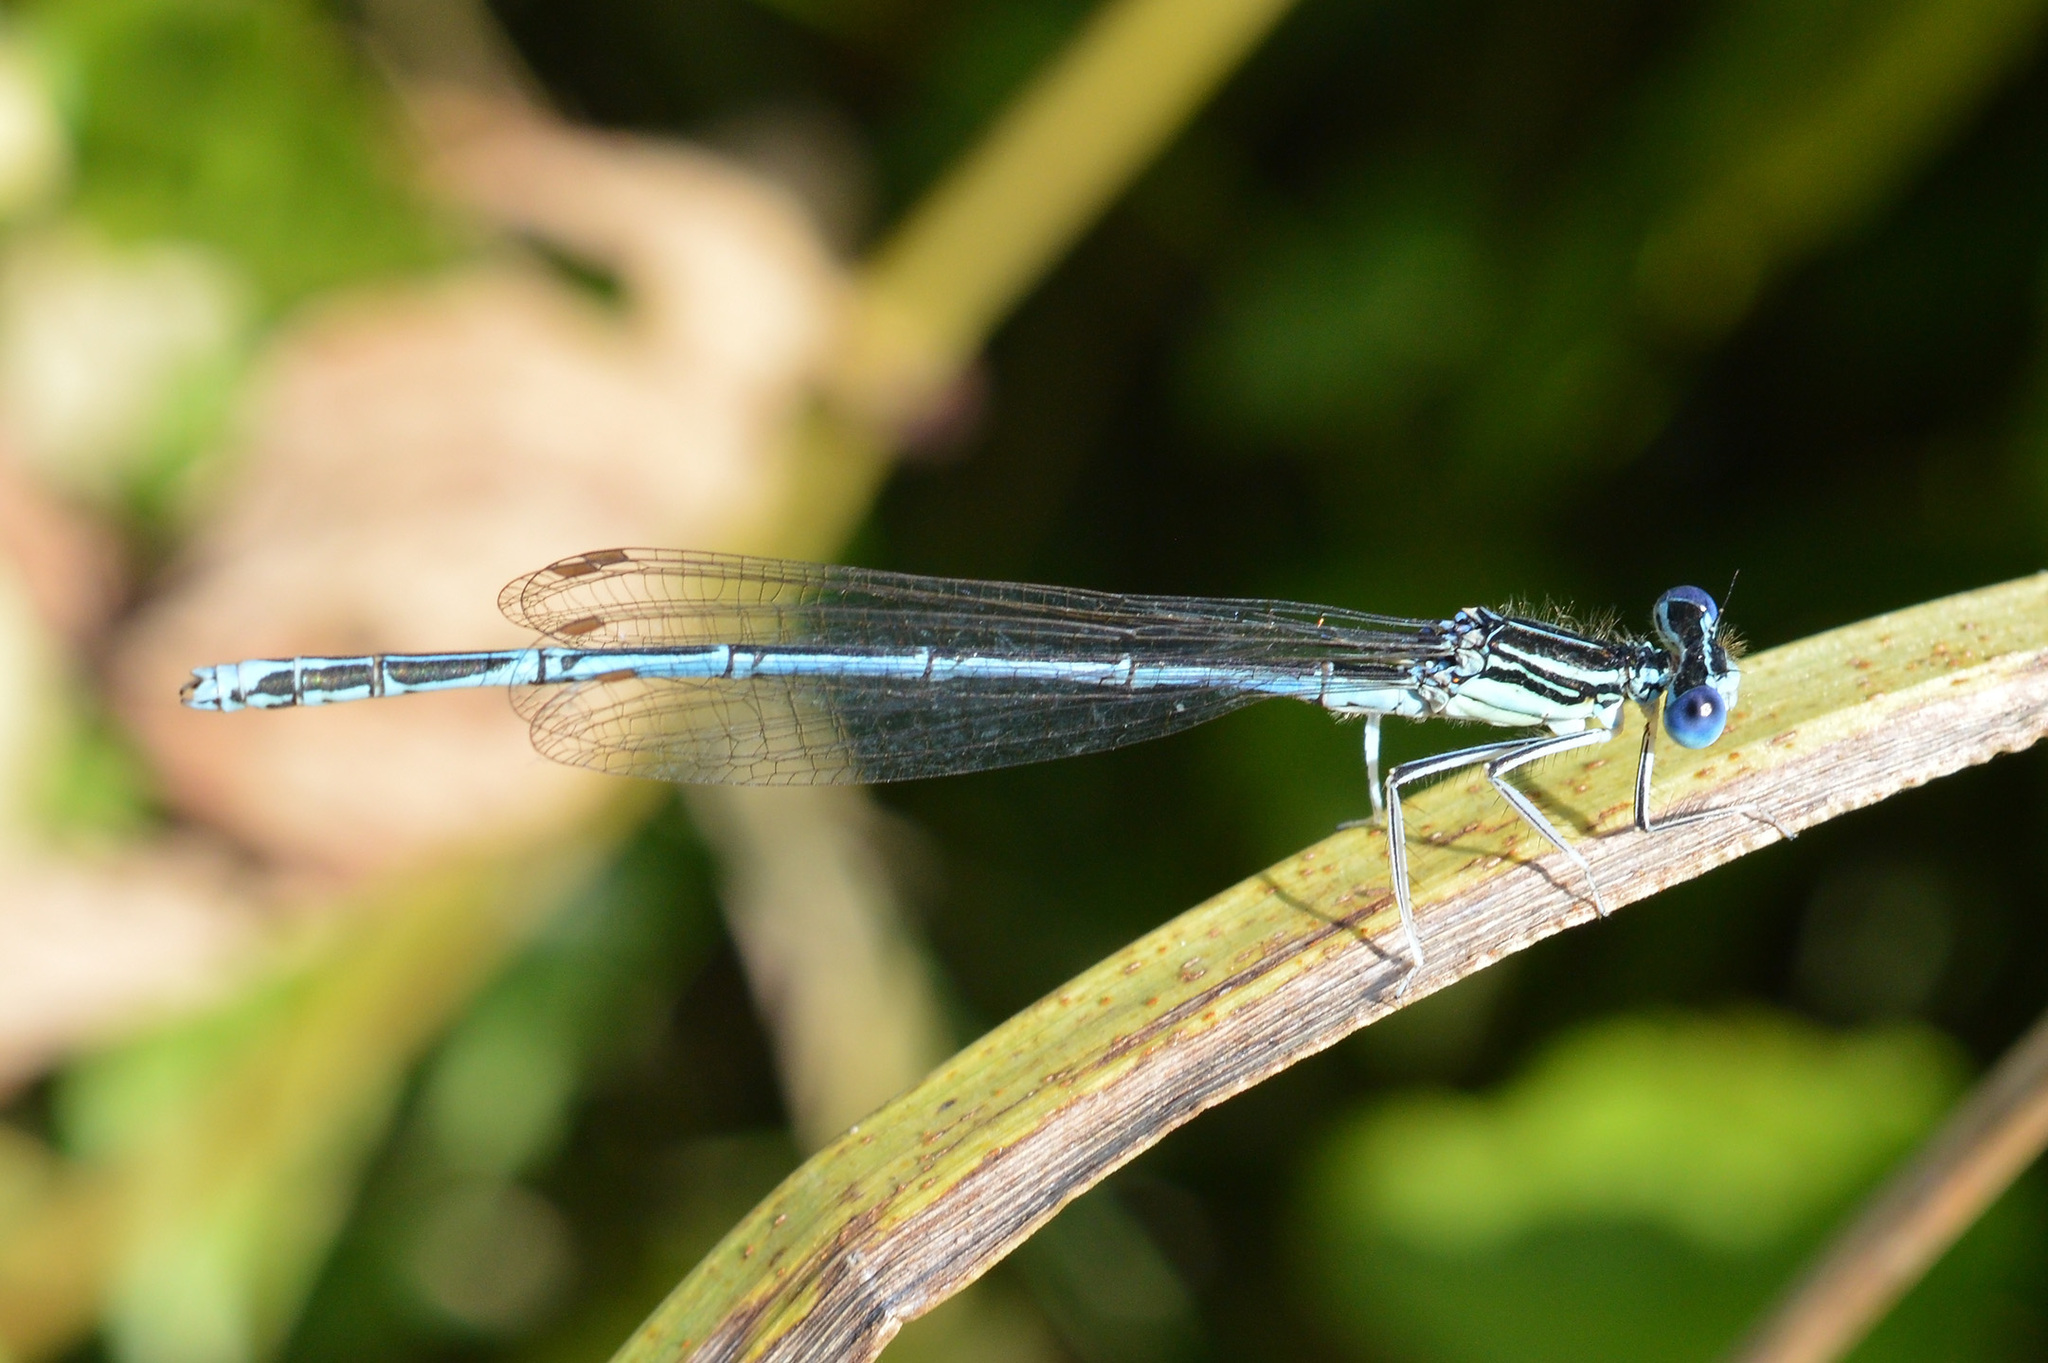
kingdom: Animalia
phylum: Arthropoda
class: Insecta
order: Odonata
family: Platycnemididae
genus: Platycnemis
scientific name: Platycnemis pennipes
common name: White-legged damselfly
